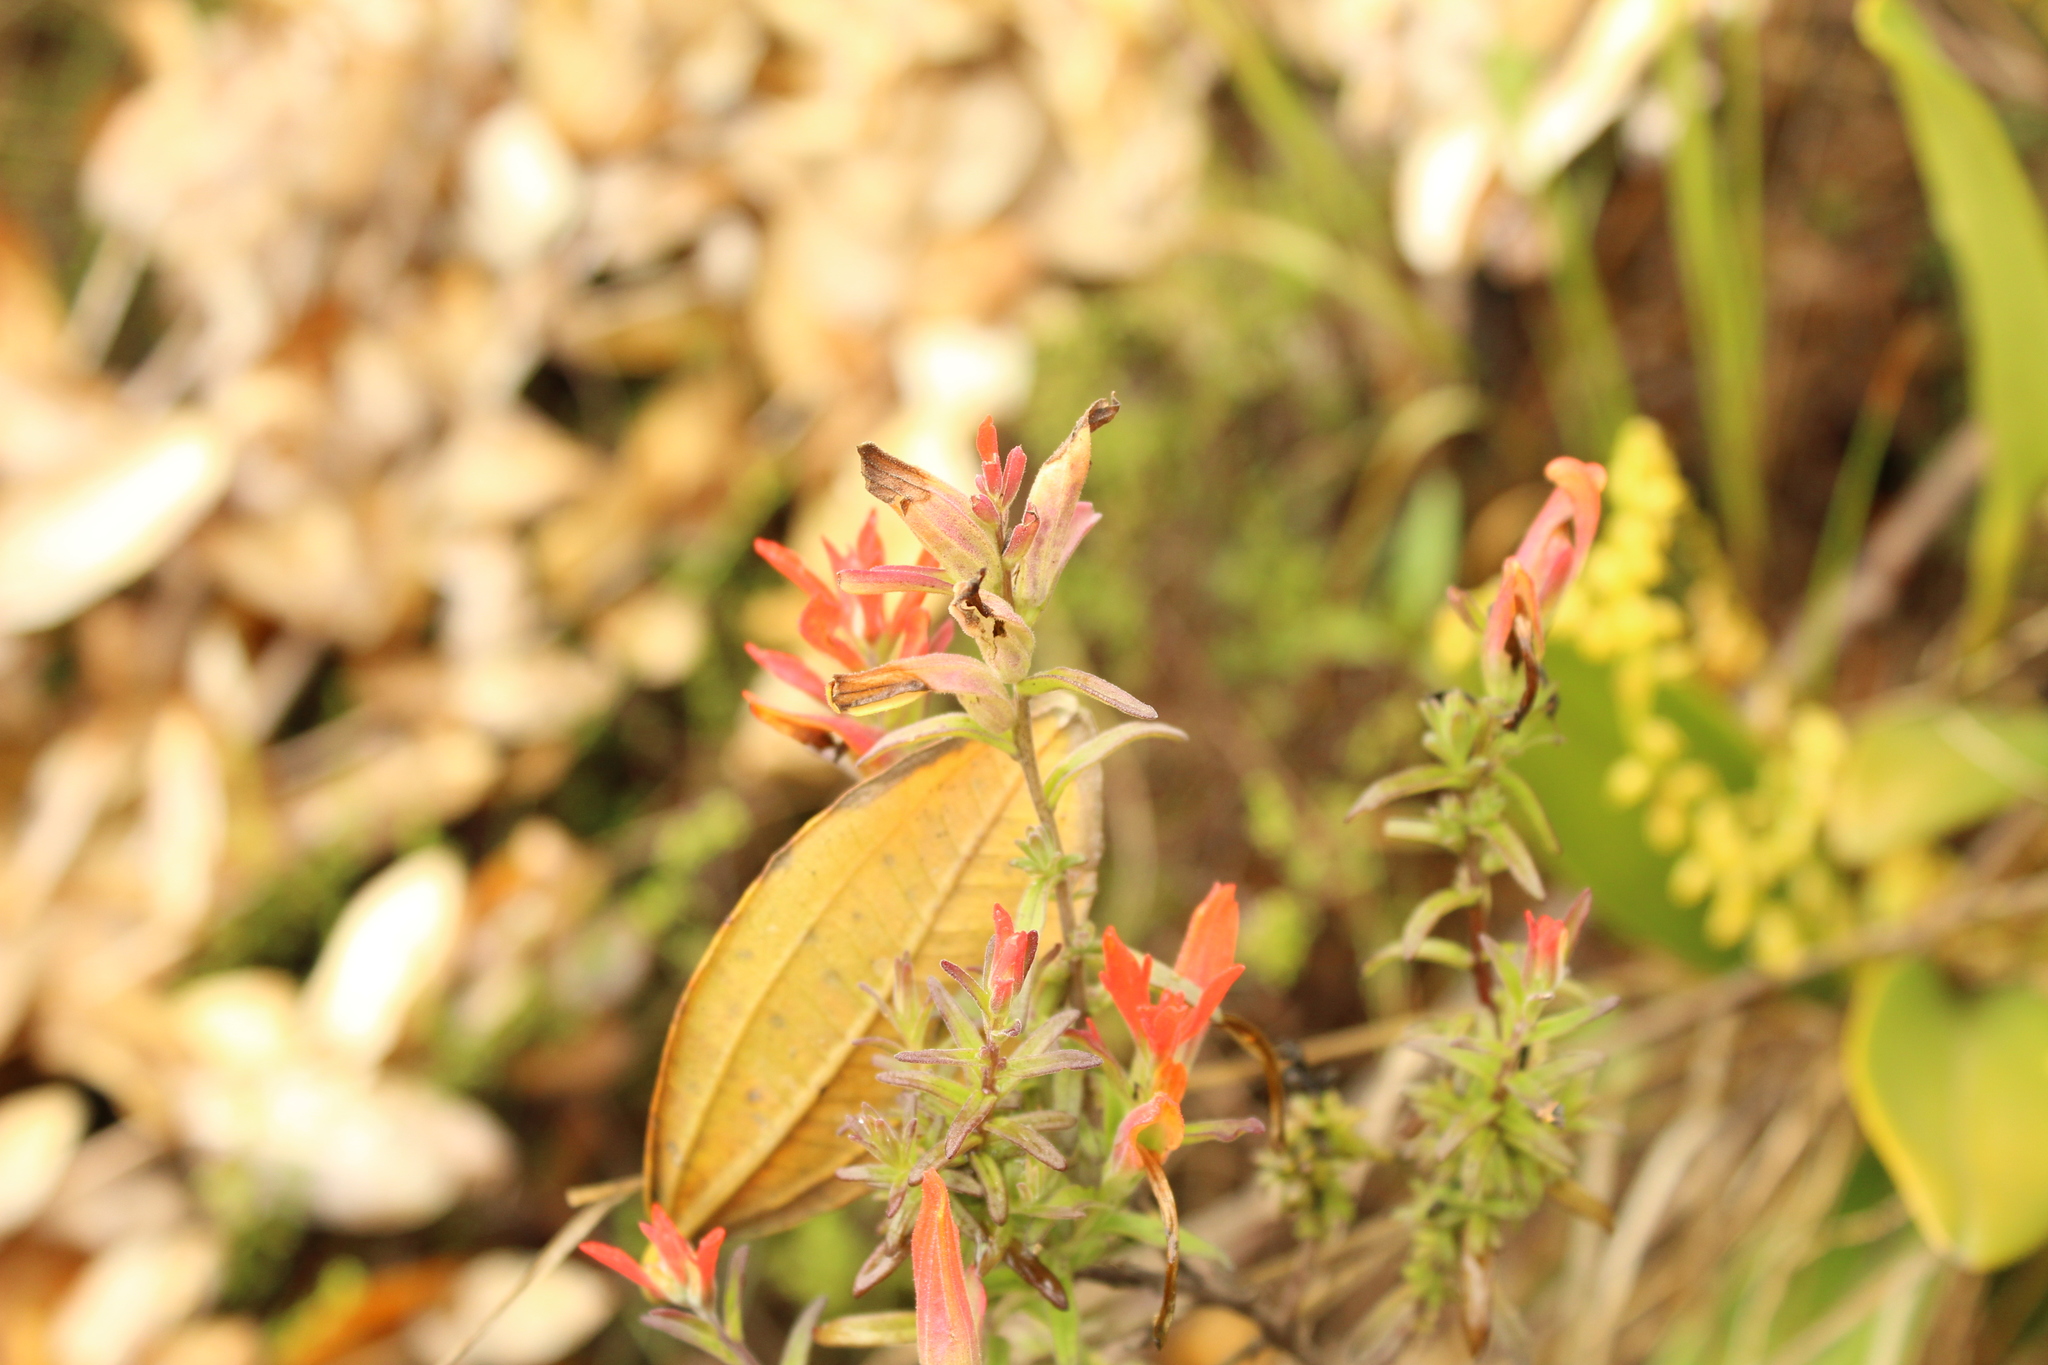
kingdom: Plantae
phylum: Tracheophyta
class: Magnoliopsida
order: Lamiales
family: Orobanchaceae
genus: Castilleja
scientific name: Castilleja integrifolia
